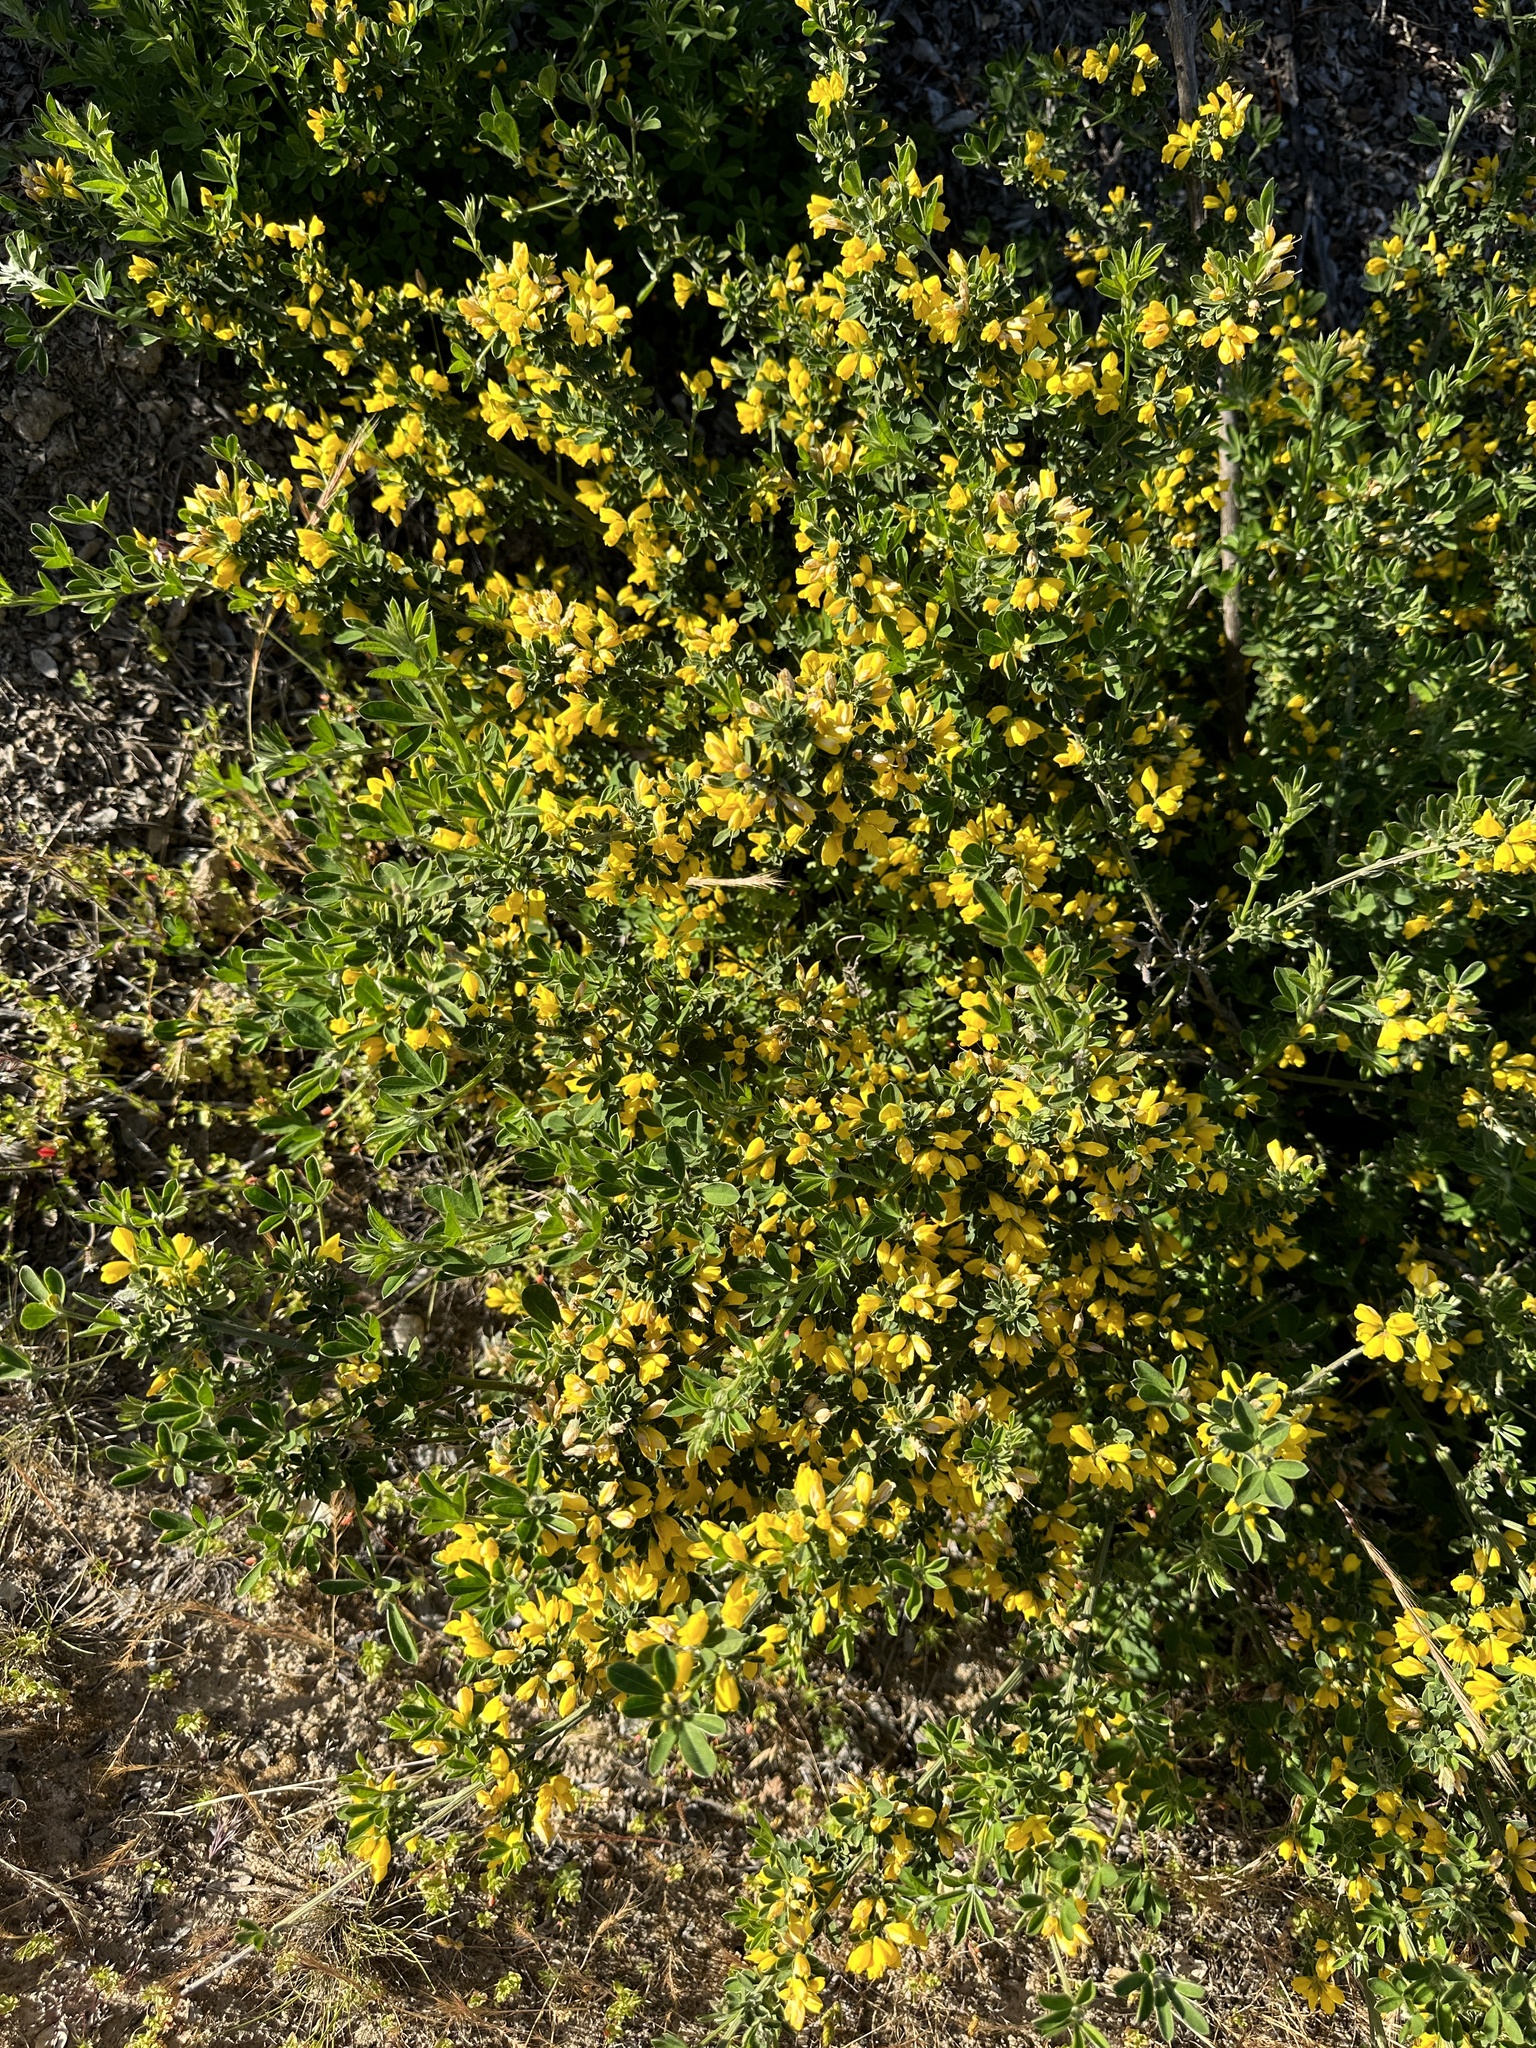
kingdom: Plantae
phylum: Tracheophyta
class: Magnoliopsida
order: Fabales
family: Fabaceae
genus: Genista
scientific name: Genista monspessulana
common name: Montpellier broom
